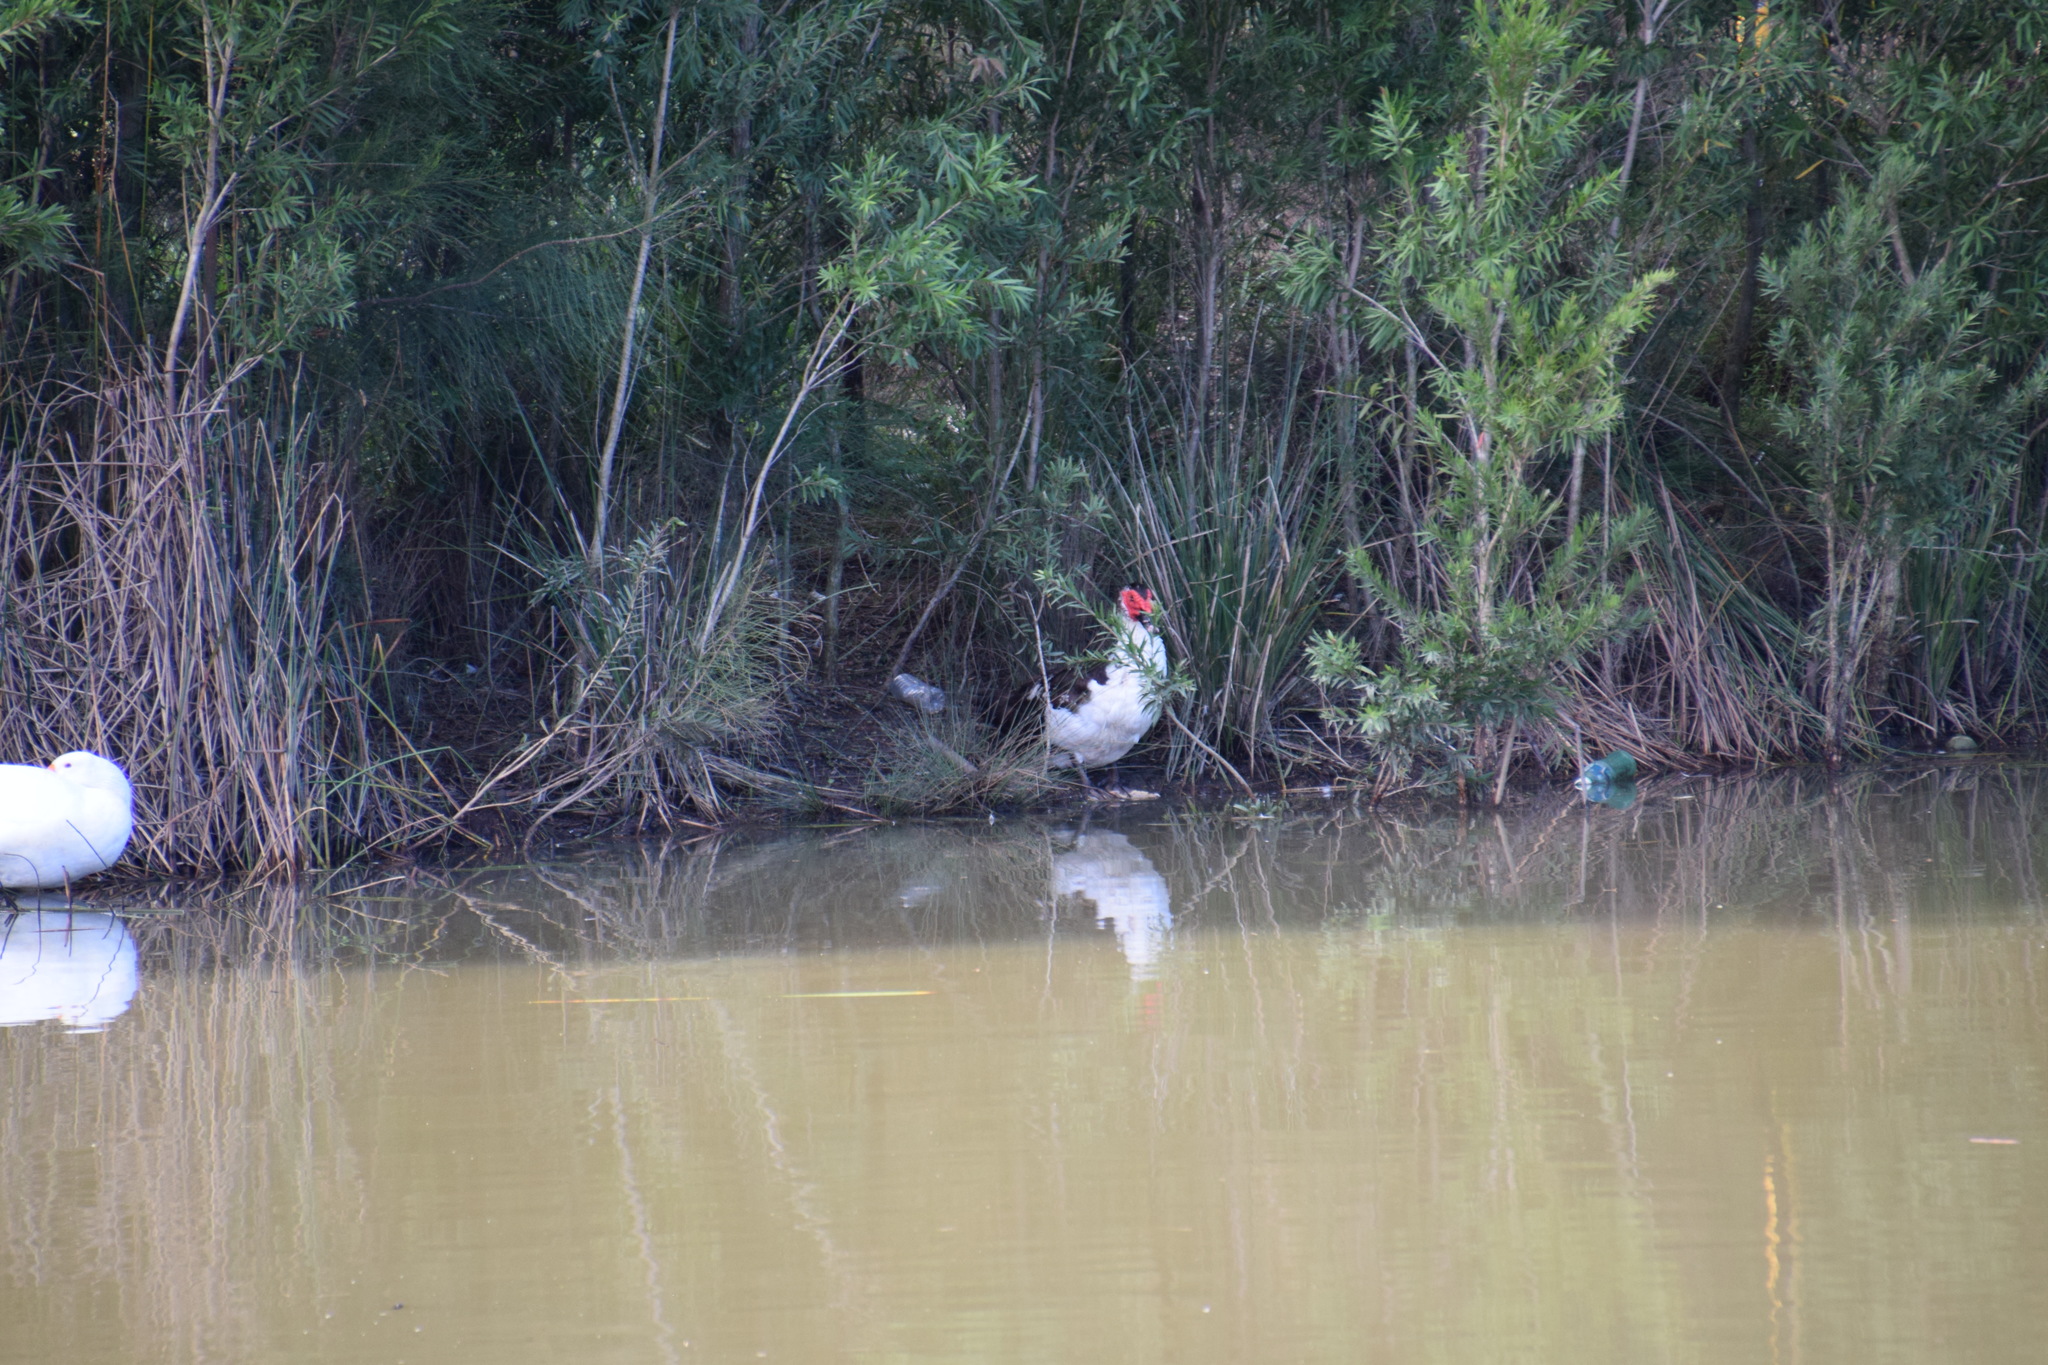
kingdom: Animalia
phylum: Chordata
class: Aves
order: Anseriformes
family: Anatidae
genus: Cairina
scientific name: Cairina moschata
